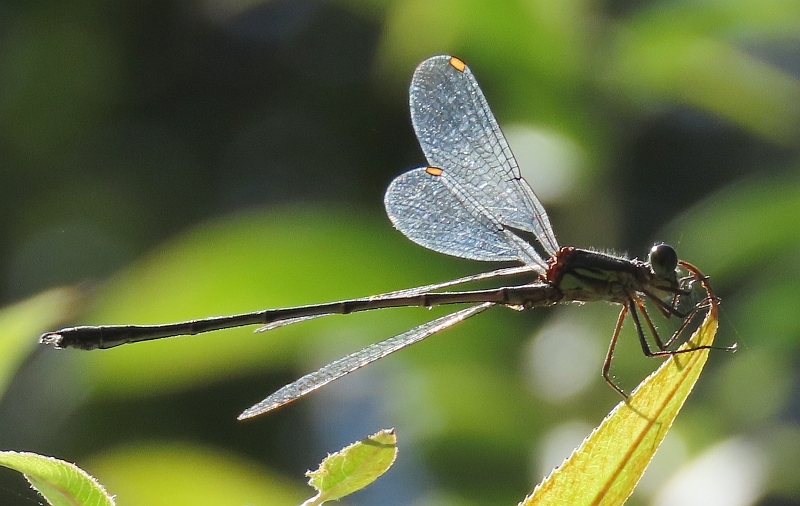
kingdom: Animalia
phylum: Arthropoda
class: Insecta
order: Odonata
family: Lestidae
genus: Chalcolestes
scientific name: Chalcolestes viridis
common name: Green emerald damselfly
